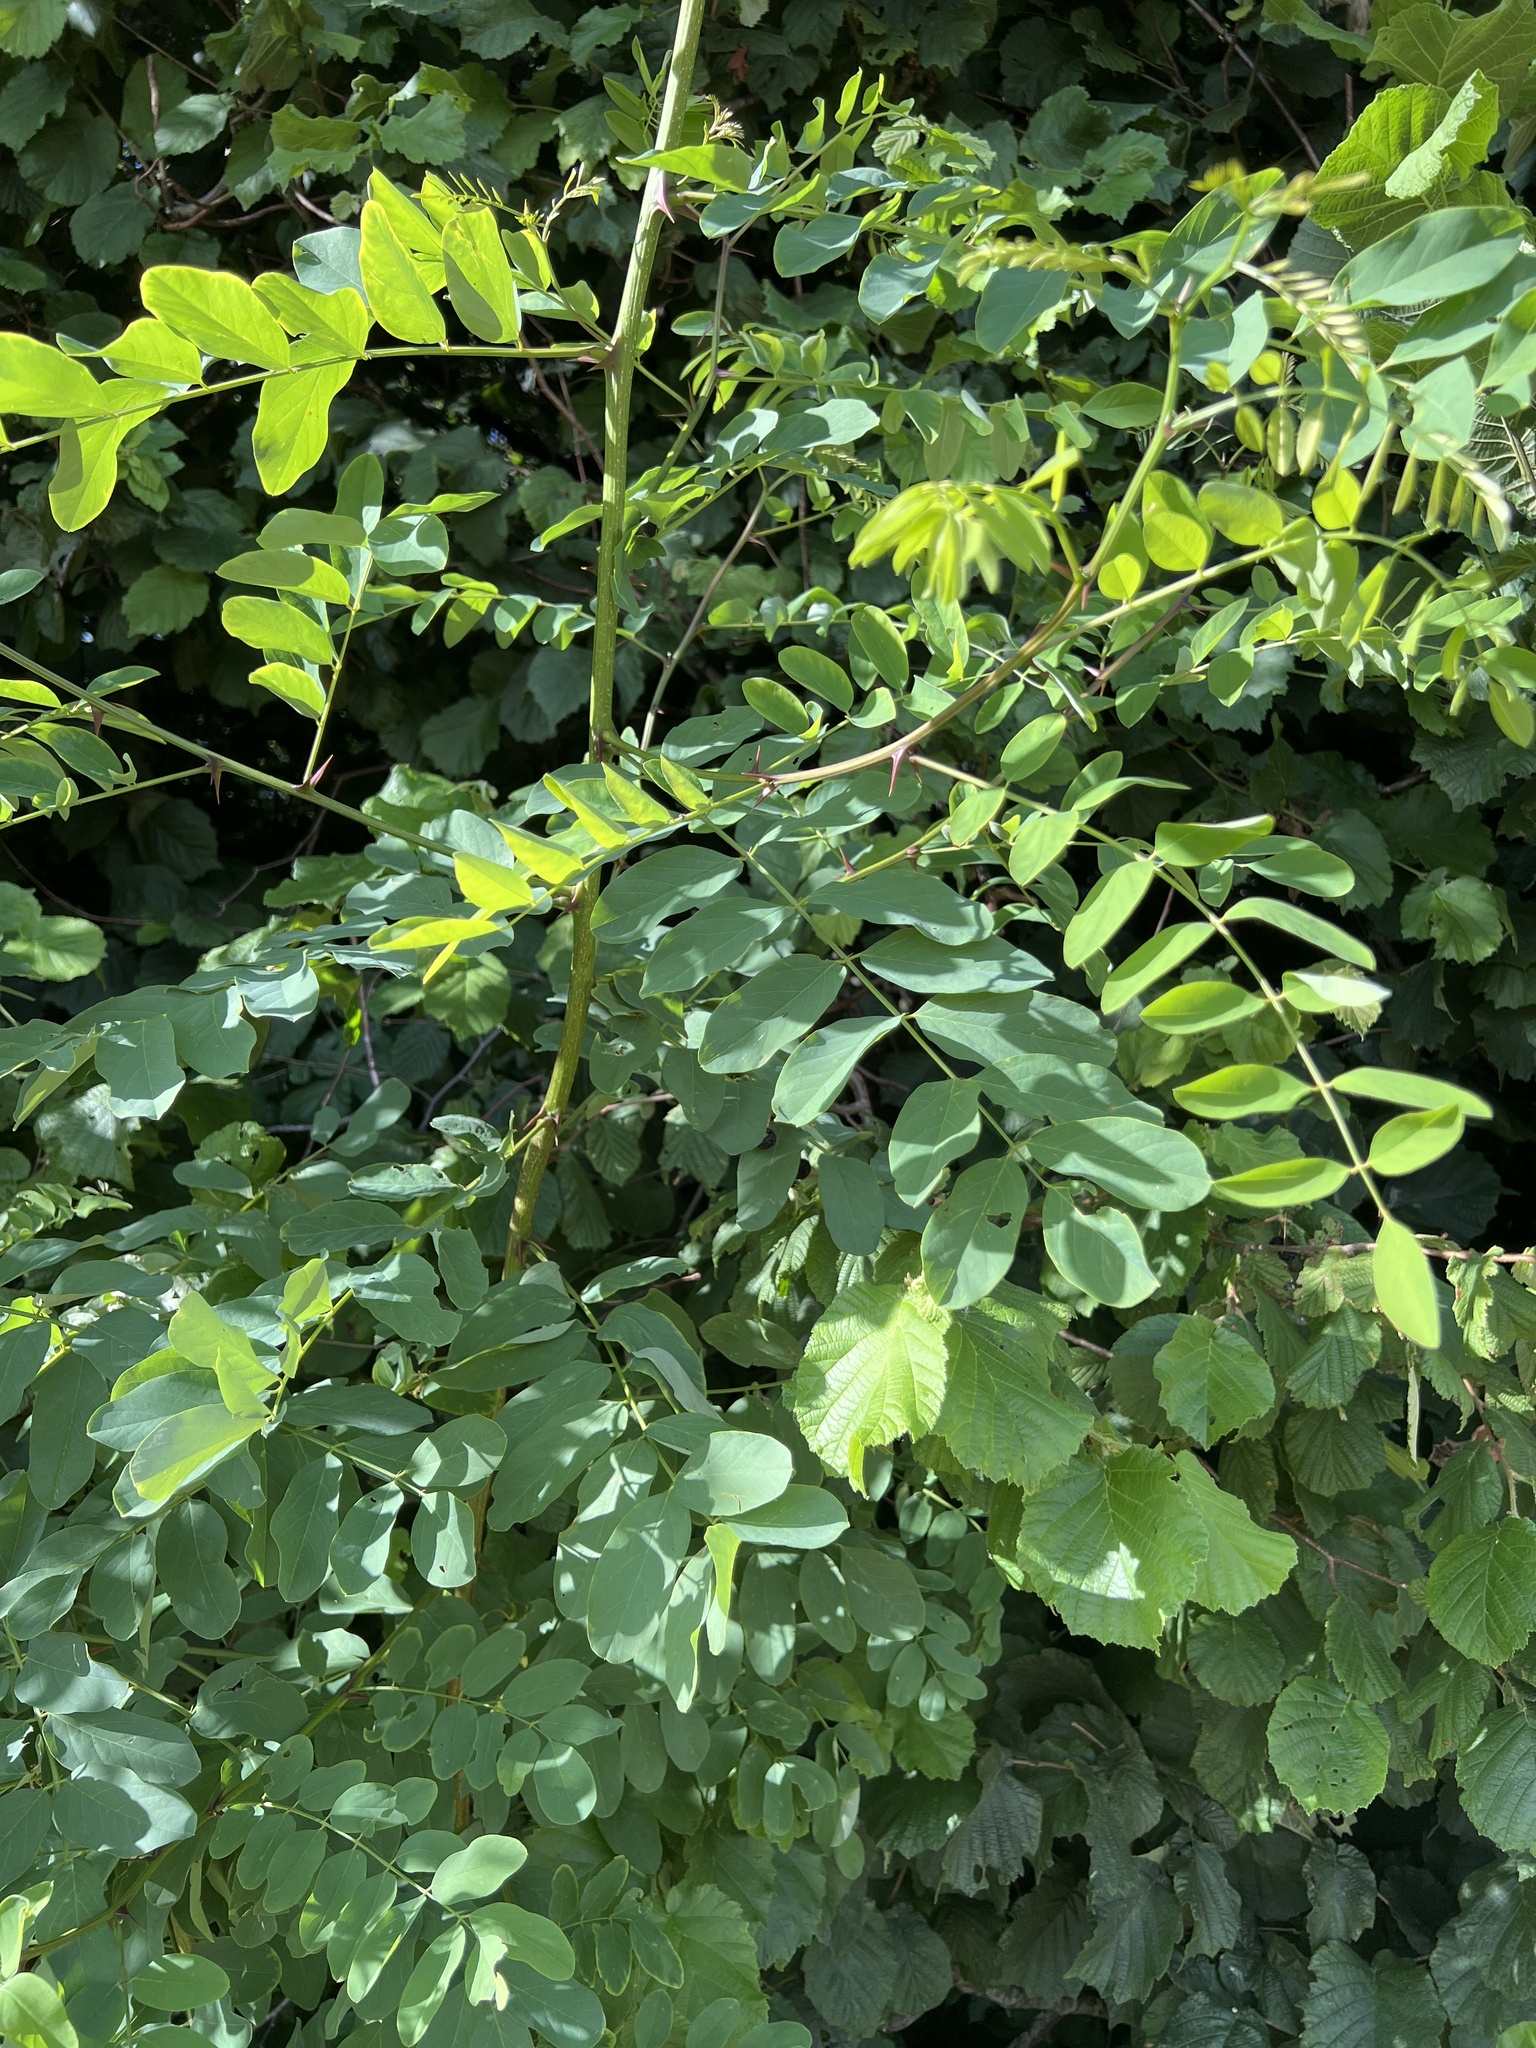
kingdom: Plantae
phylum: Tracheophyta
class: Magnoliopsida
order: Fabales
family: Fabaceae
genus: Robinia
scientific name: Robinia pseudoacacia
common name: Black locust
